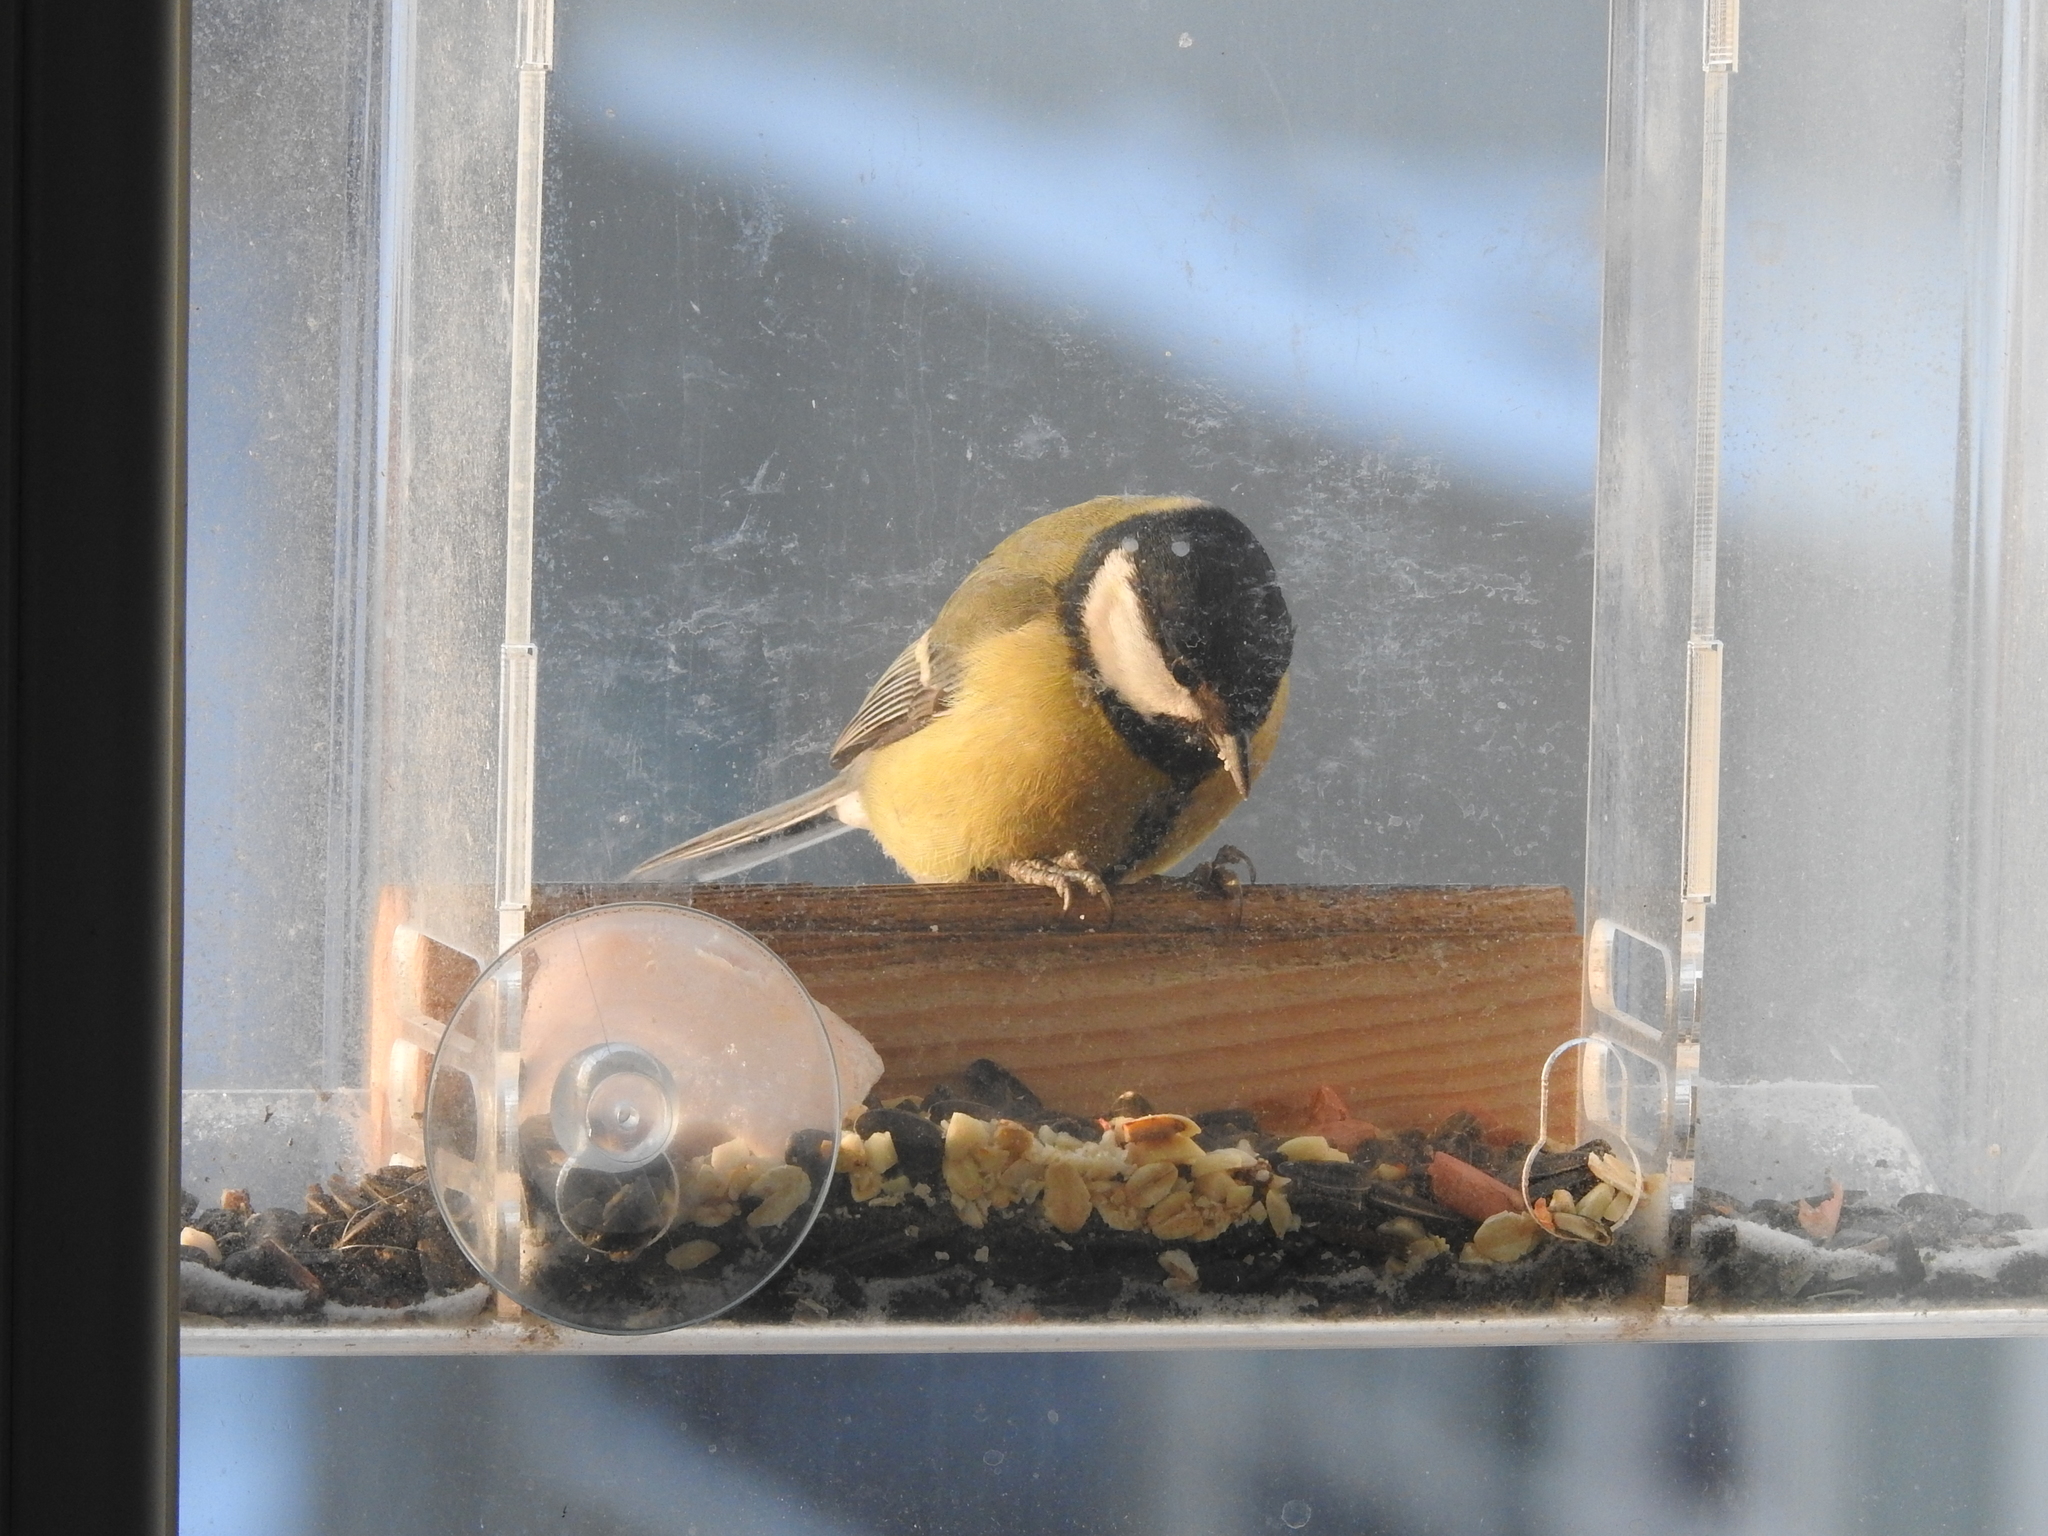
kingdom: Animalia
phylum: Chordata
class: Aves
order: Passeriformes
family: Paridae
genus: Parus
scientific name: Parus major
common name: Great tit
